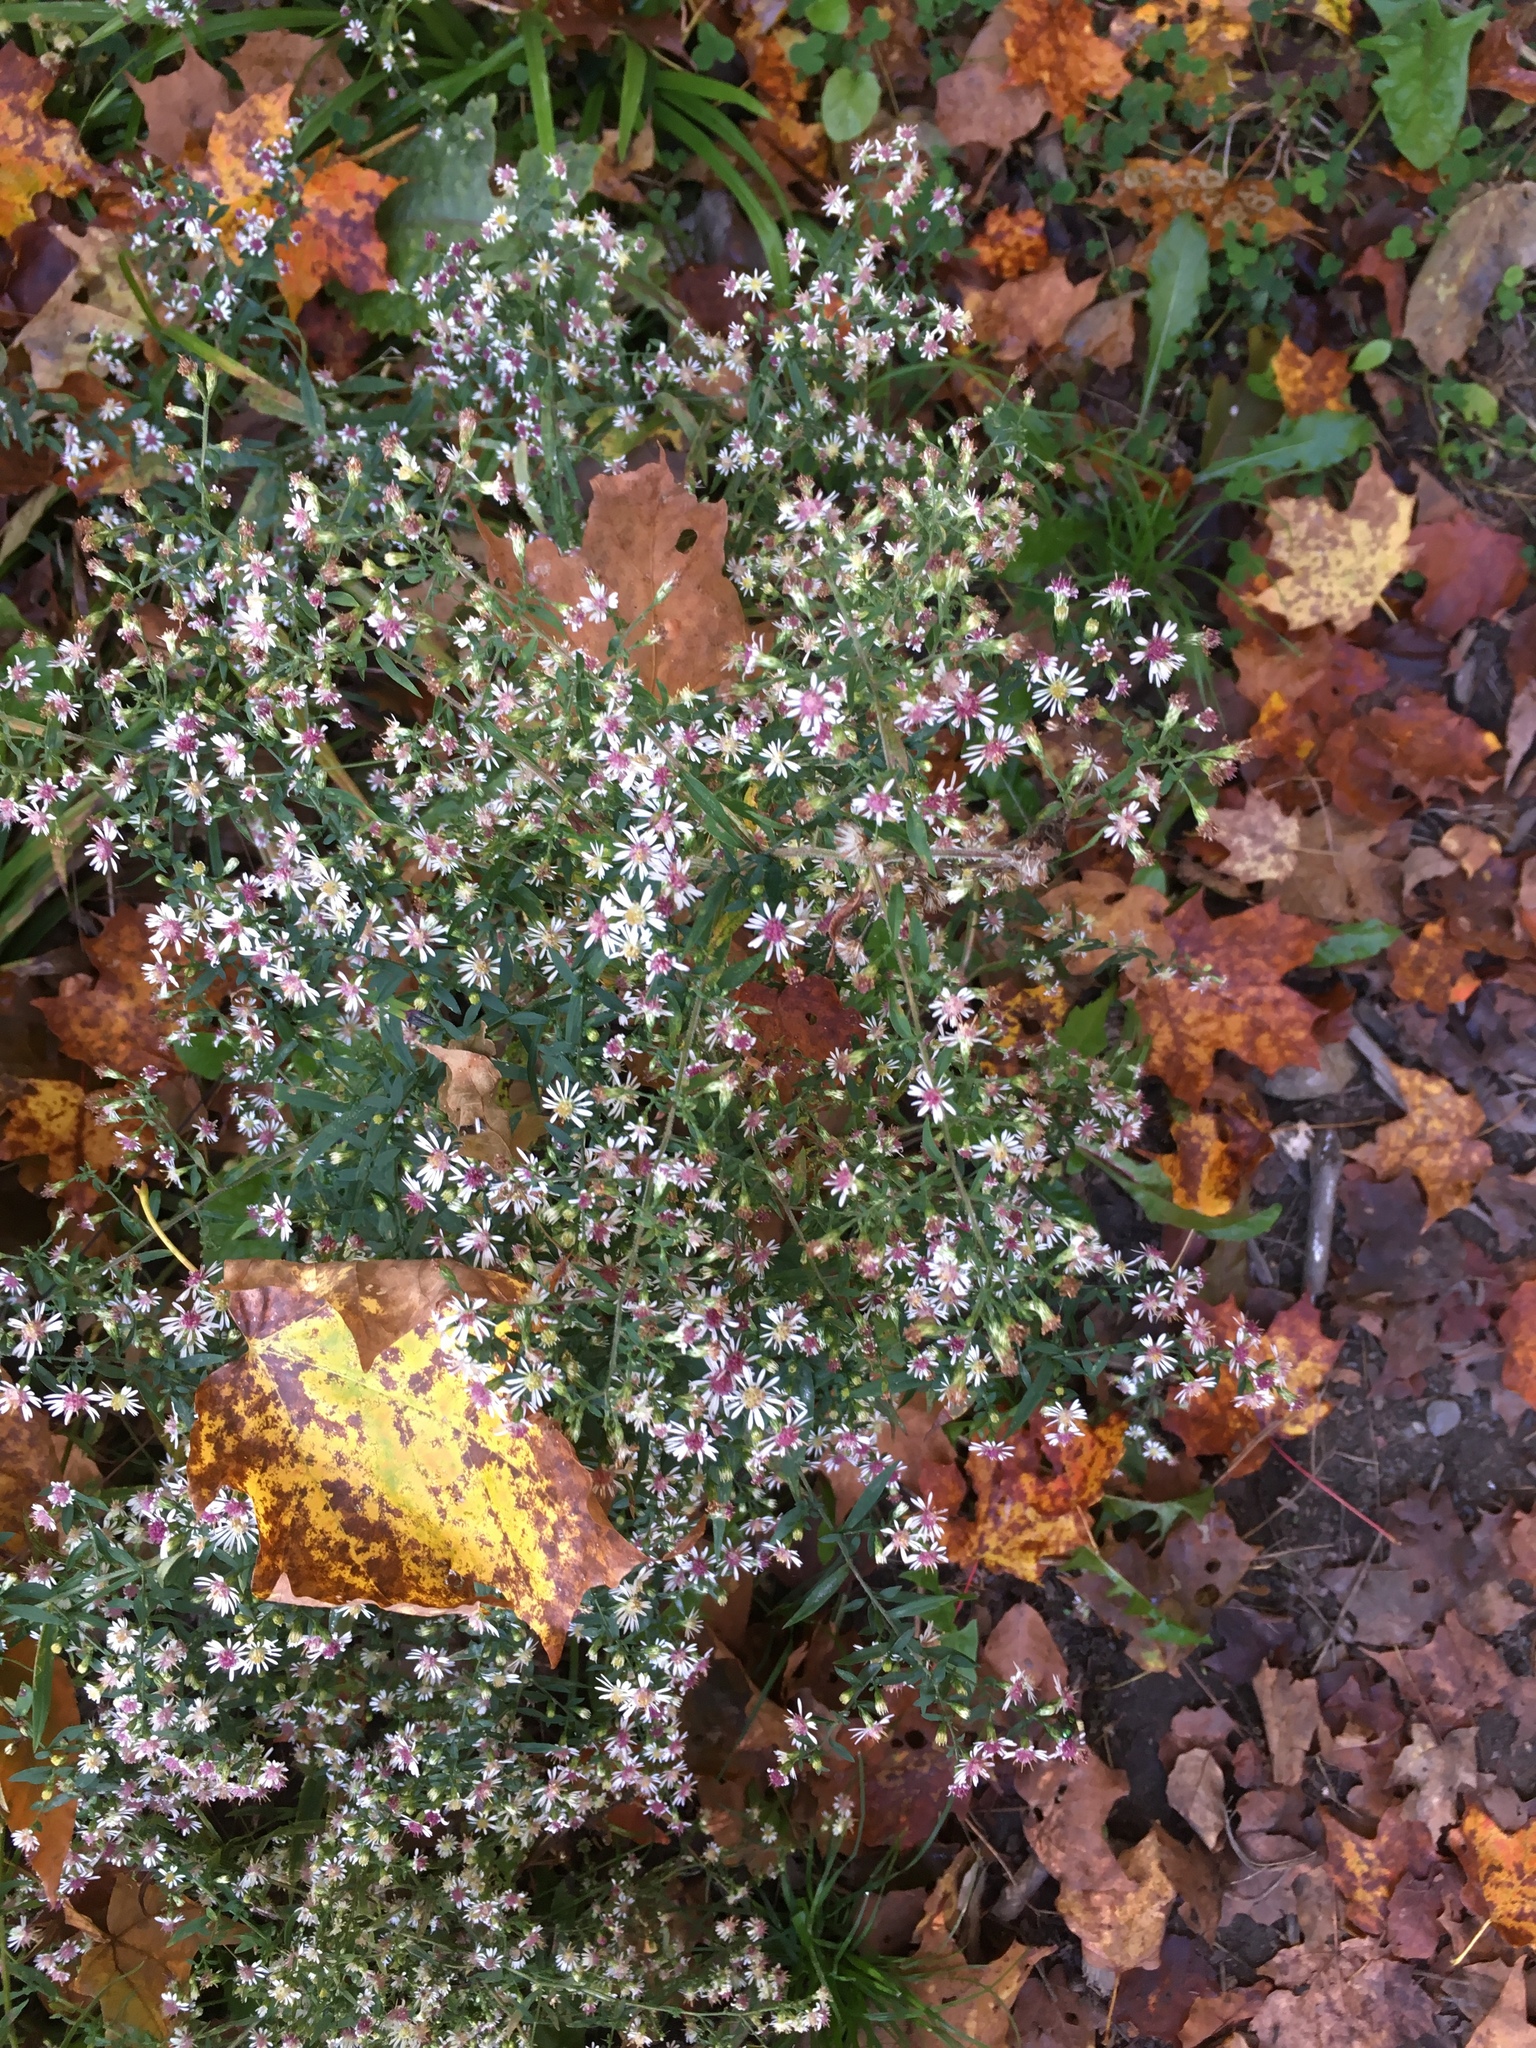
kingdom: Plantae
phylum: Tracheophyta
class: Magnoliopsida
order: Asterales
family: Asteraceae
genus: Symphyotrichum
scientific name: Symphyotrichum lateriflorum
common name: Calico aster
